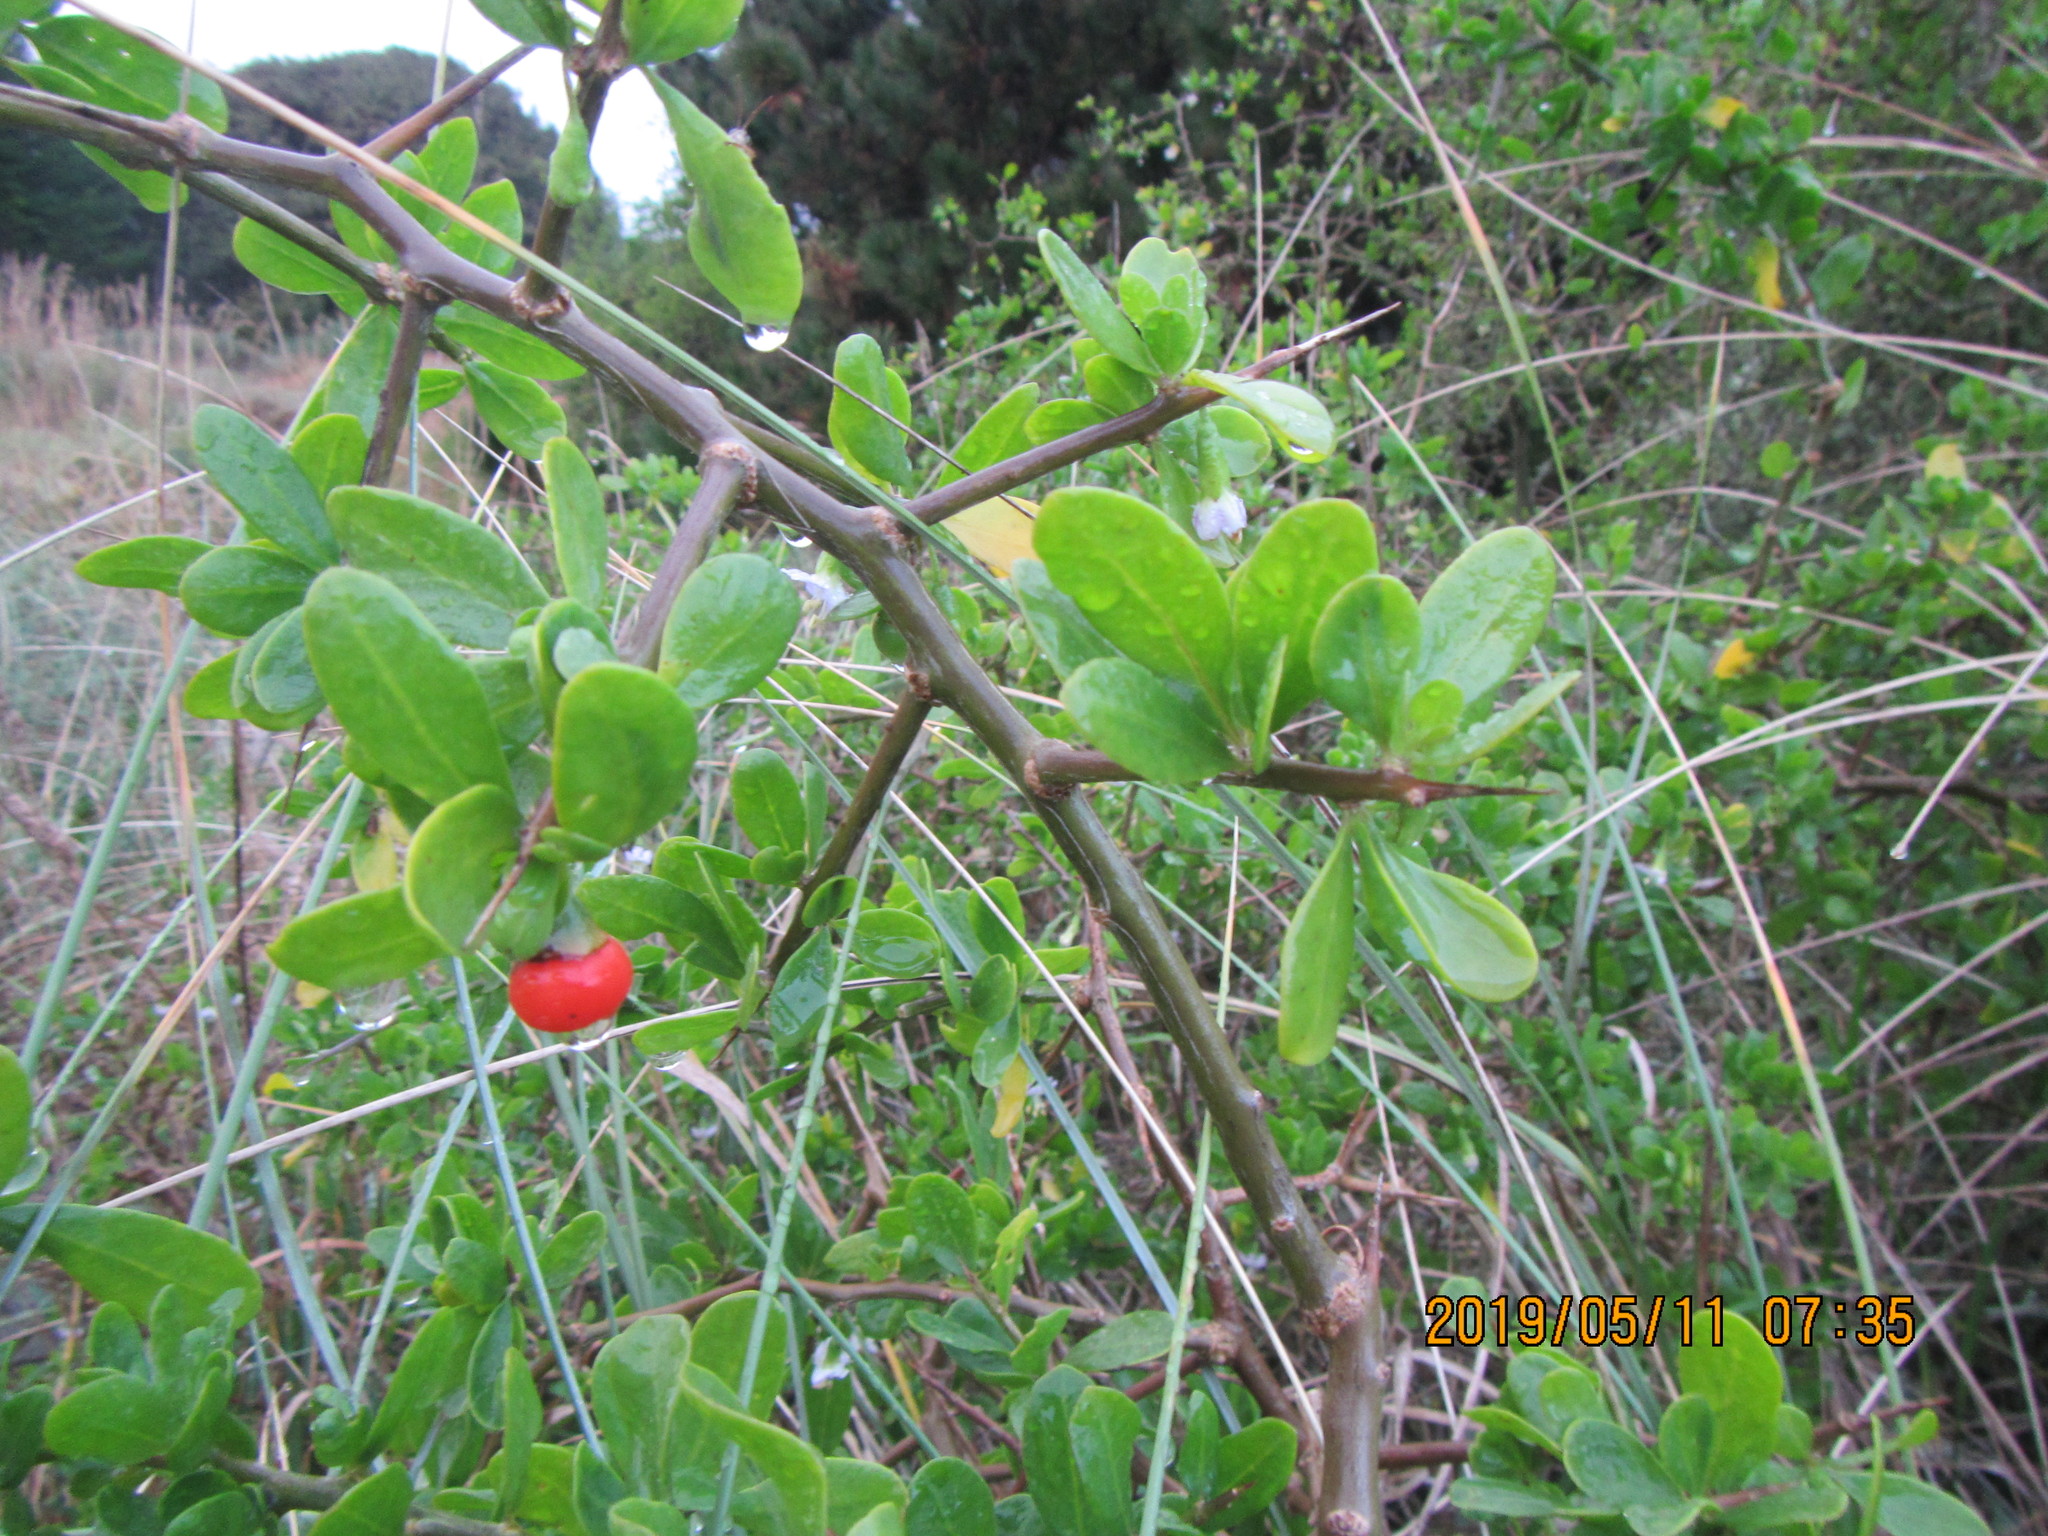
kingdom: Plantae
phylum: Tracheophyta
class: Magnoliopsida
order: Solanales
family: Solanaceae
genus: Lycium
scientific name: Lycium ferocissimum
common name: African boxthorn
